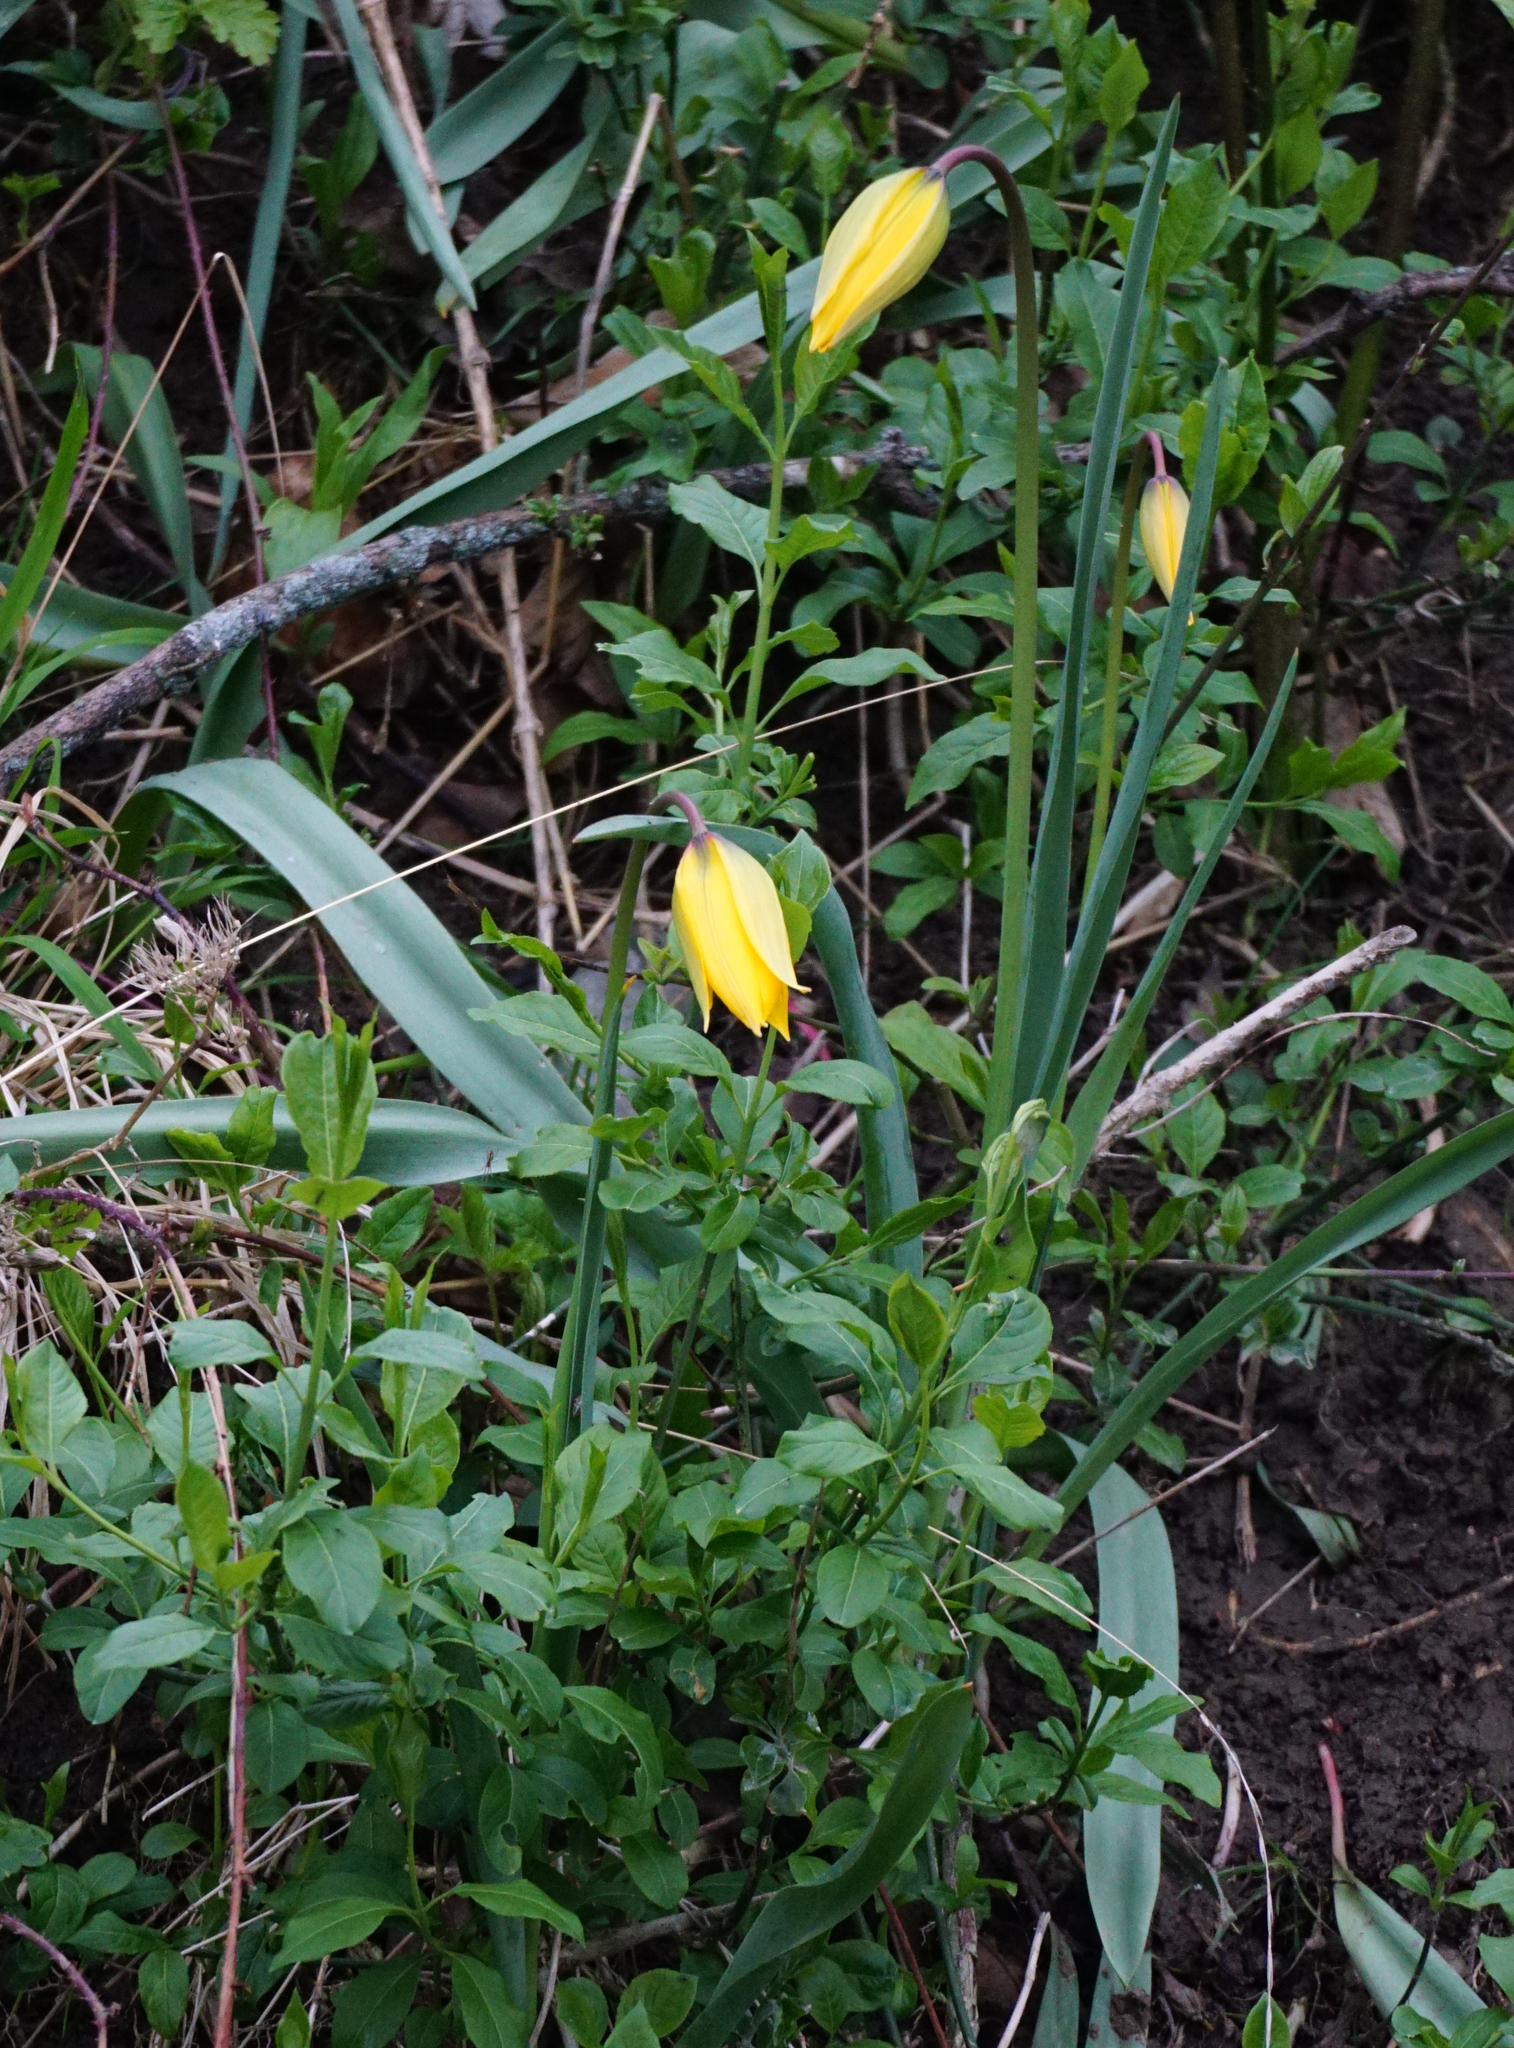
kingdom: Plantae
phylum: Tracheophyta
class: Liliopsida
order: Liliales
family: Liliaceae
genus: Tulipa
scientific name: Tulipa sylvestris
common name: Wild tulip
